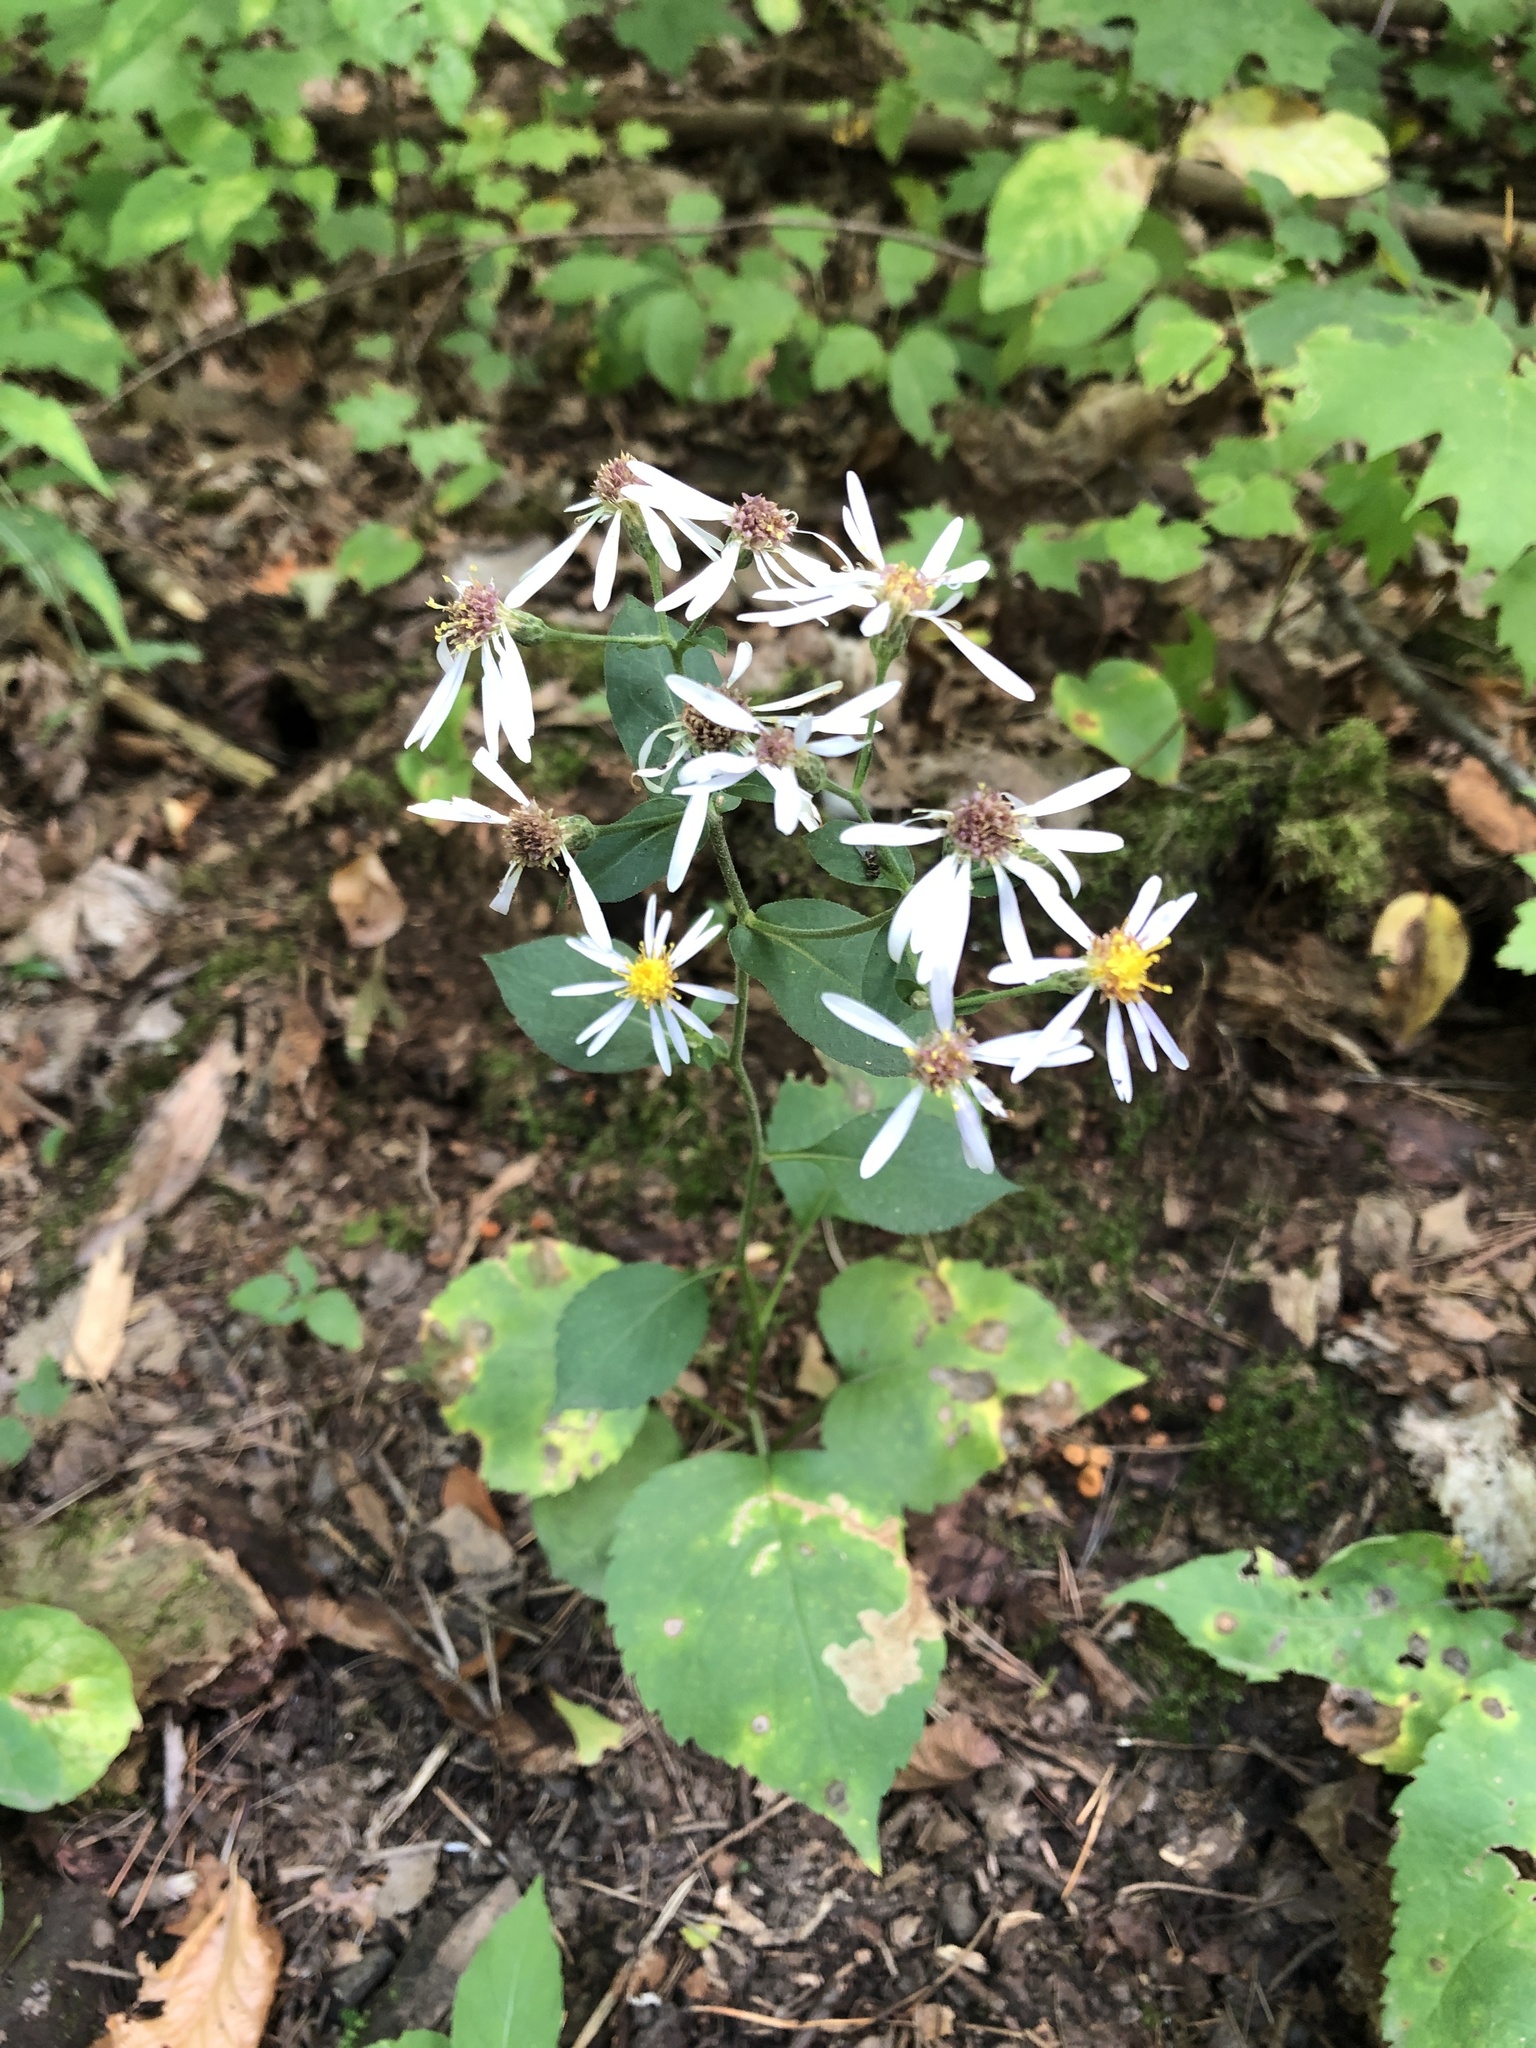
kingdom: Plantae
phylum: Tracheophyta
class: Magnoliopsida
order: Asterales
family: Asteraceae
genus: Eurybia
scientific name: Eurybia macrophylla
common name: Big-leaved aster
